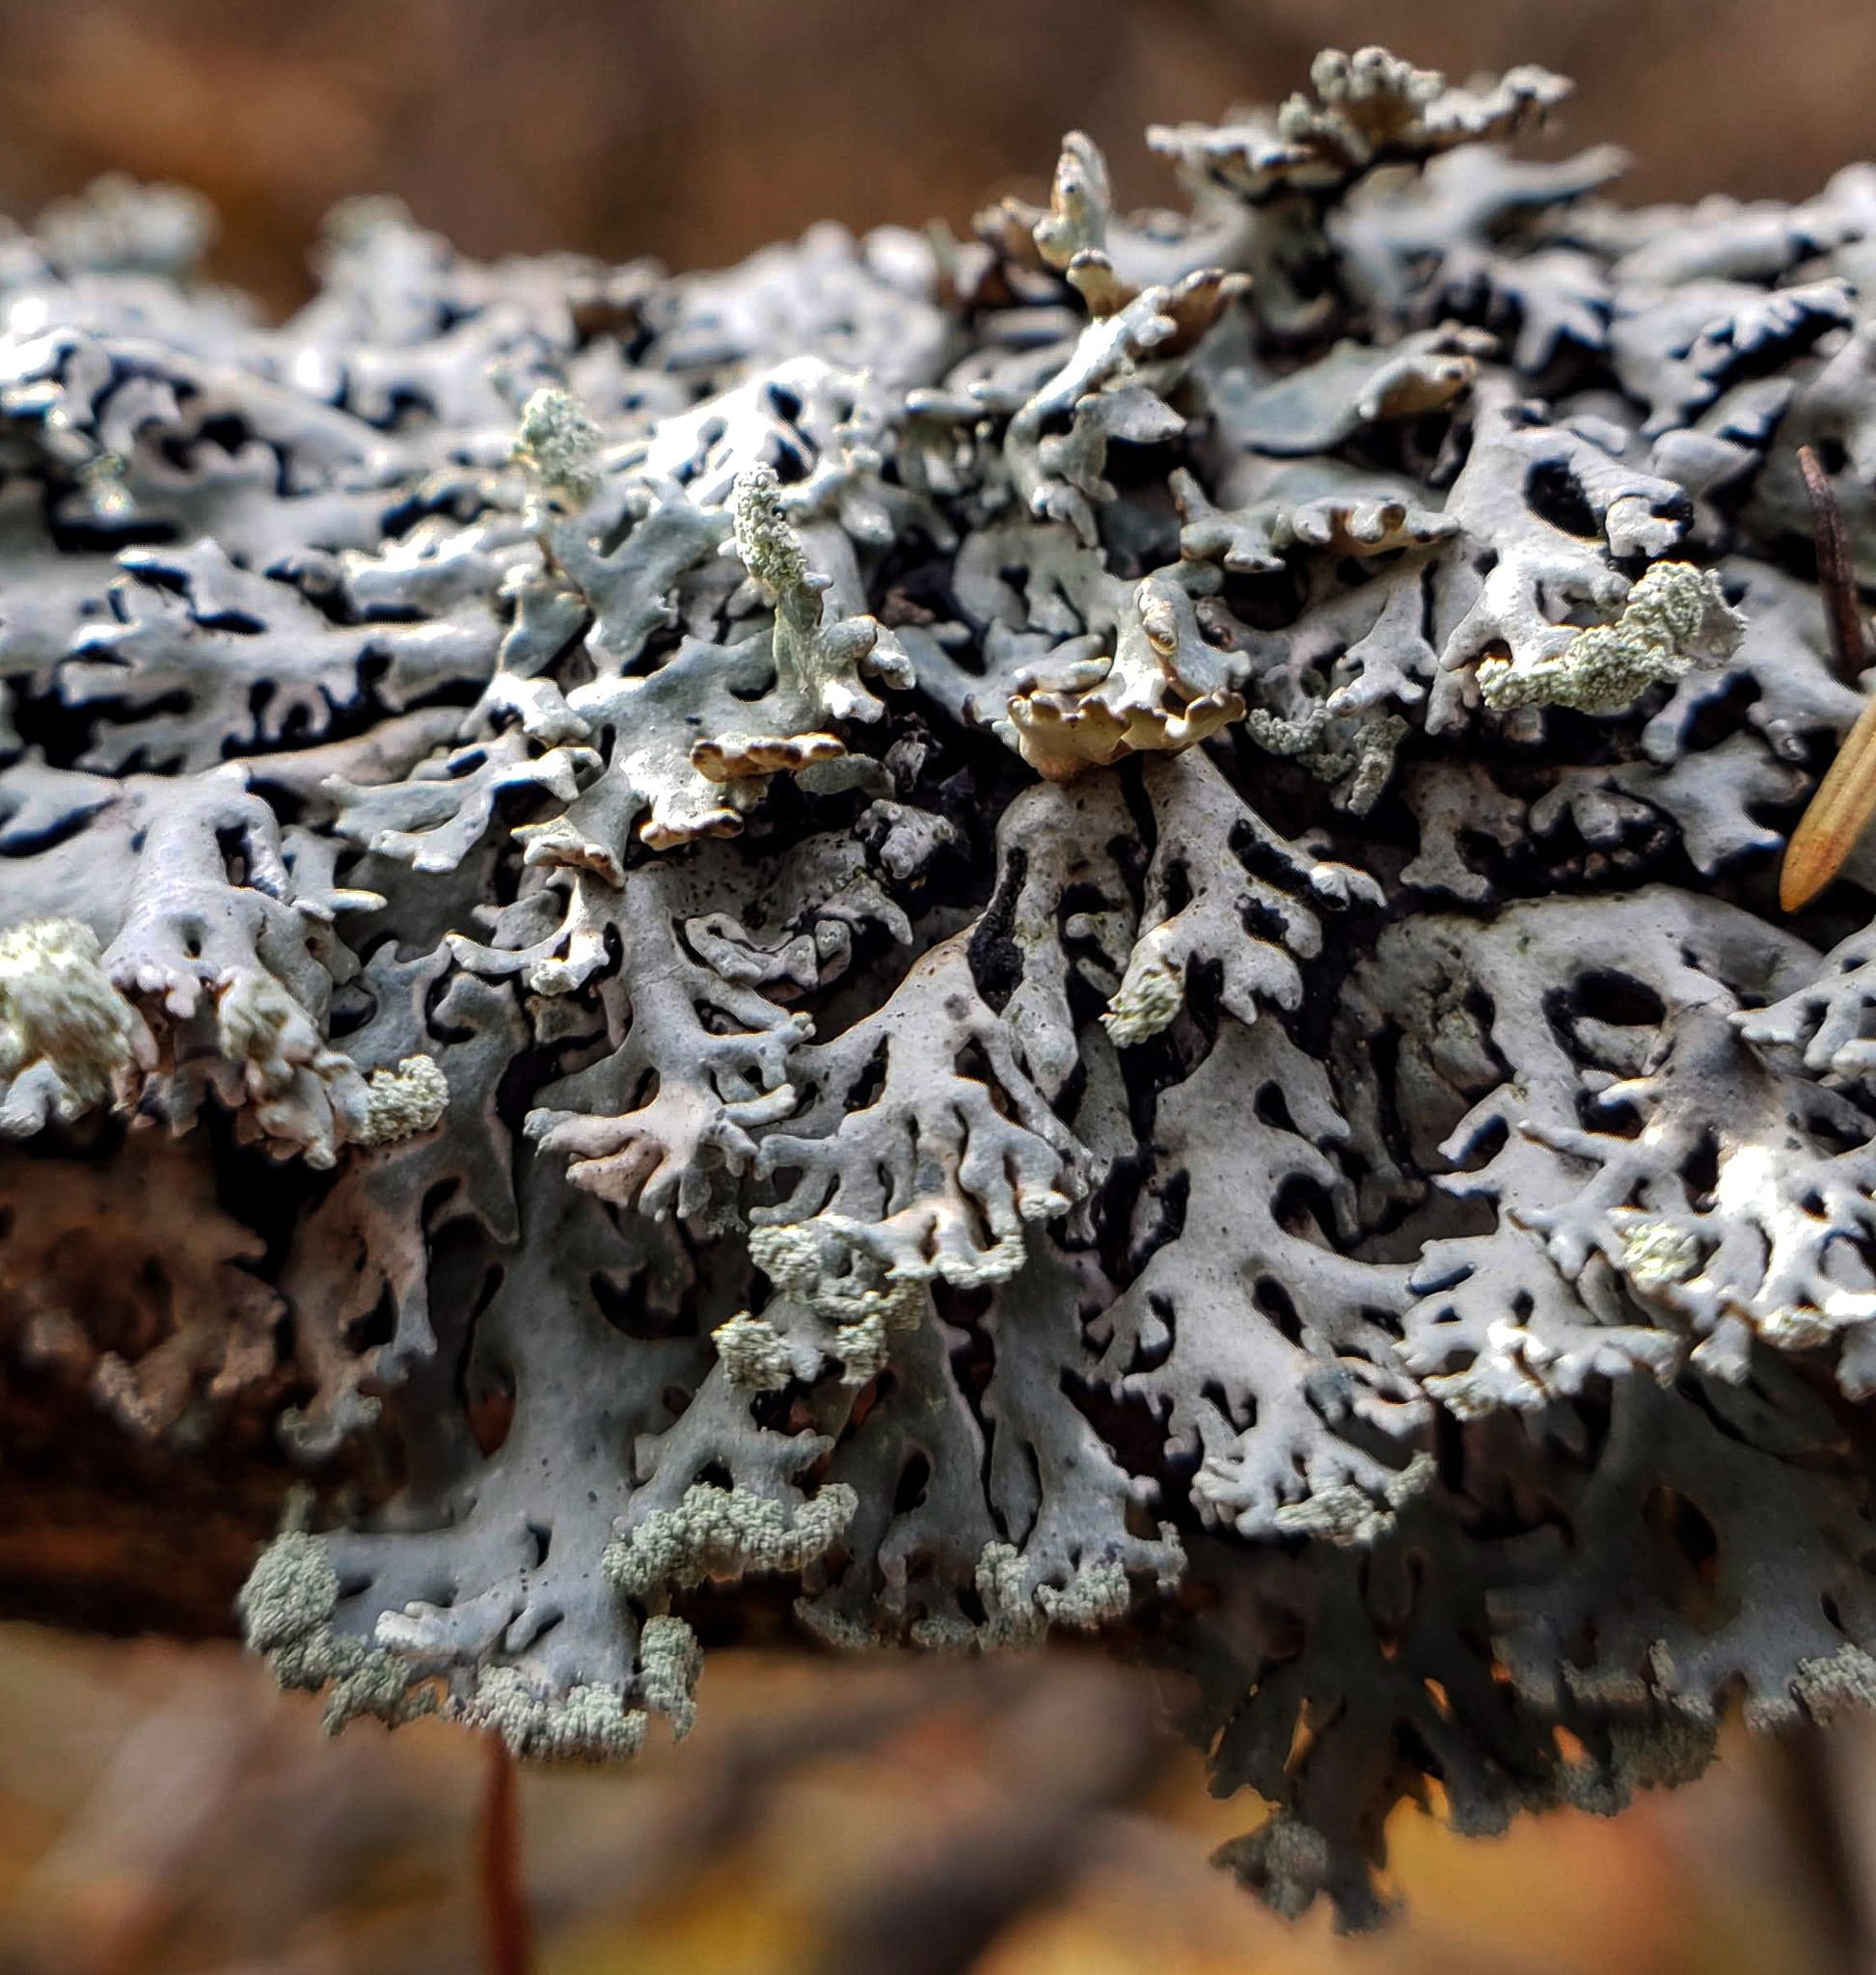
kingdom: Fungi
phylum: Ascomycota
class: Lecanoromycetes
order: Lecanorales
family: Parmeliaceae
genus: Hypogymnia
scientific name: Hypogymnia physodes
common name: Dark crottle
